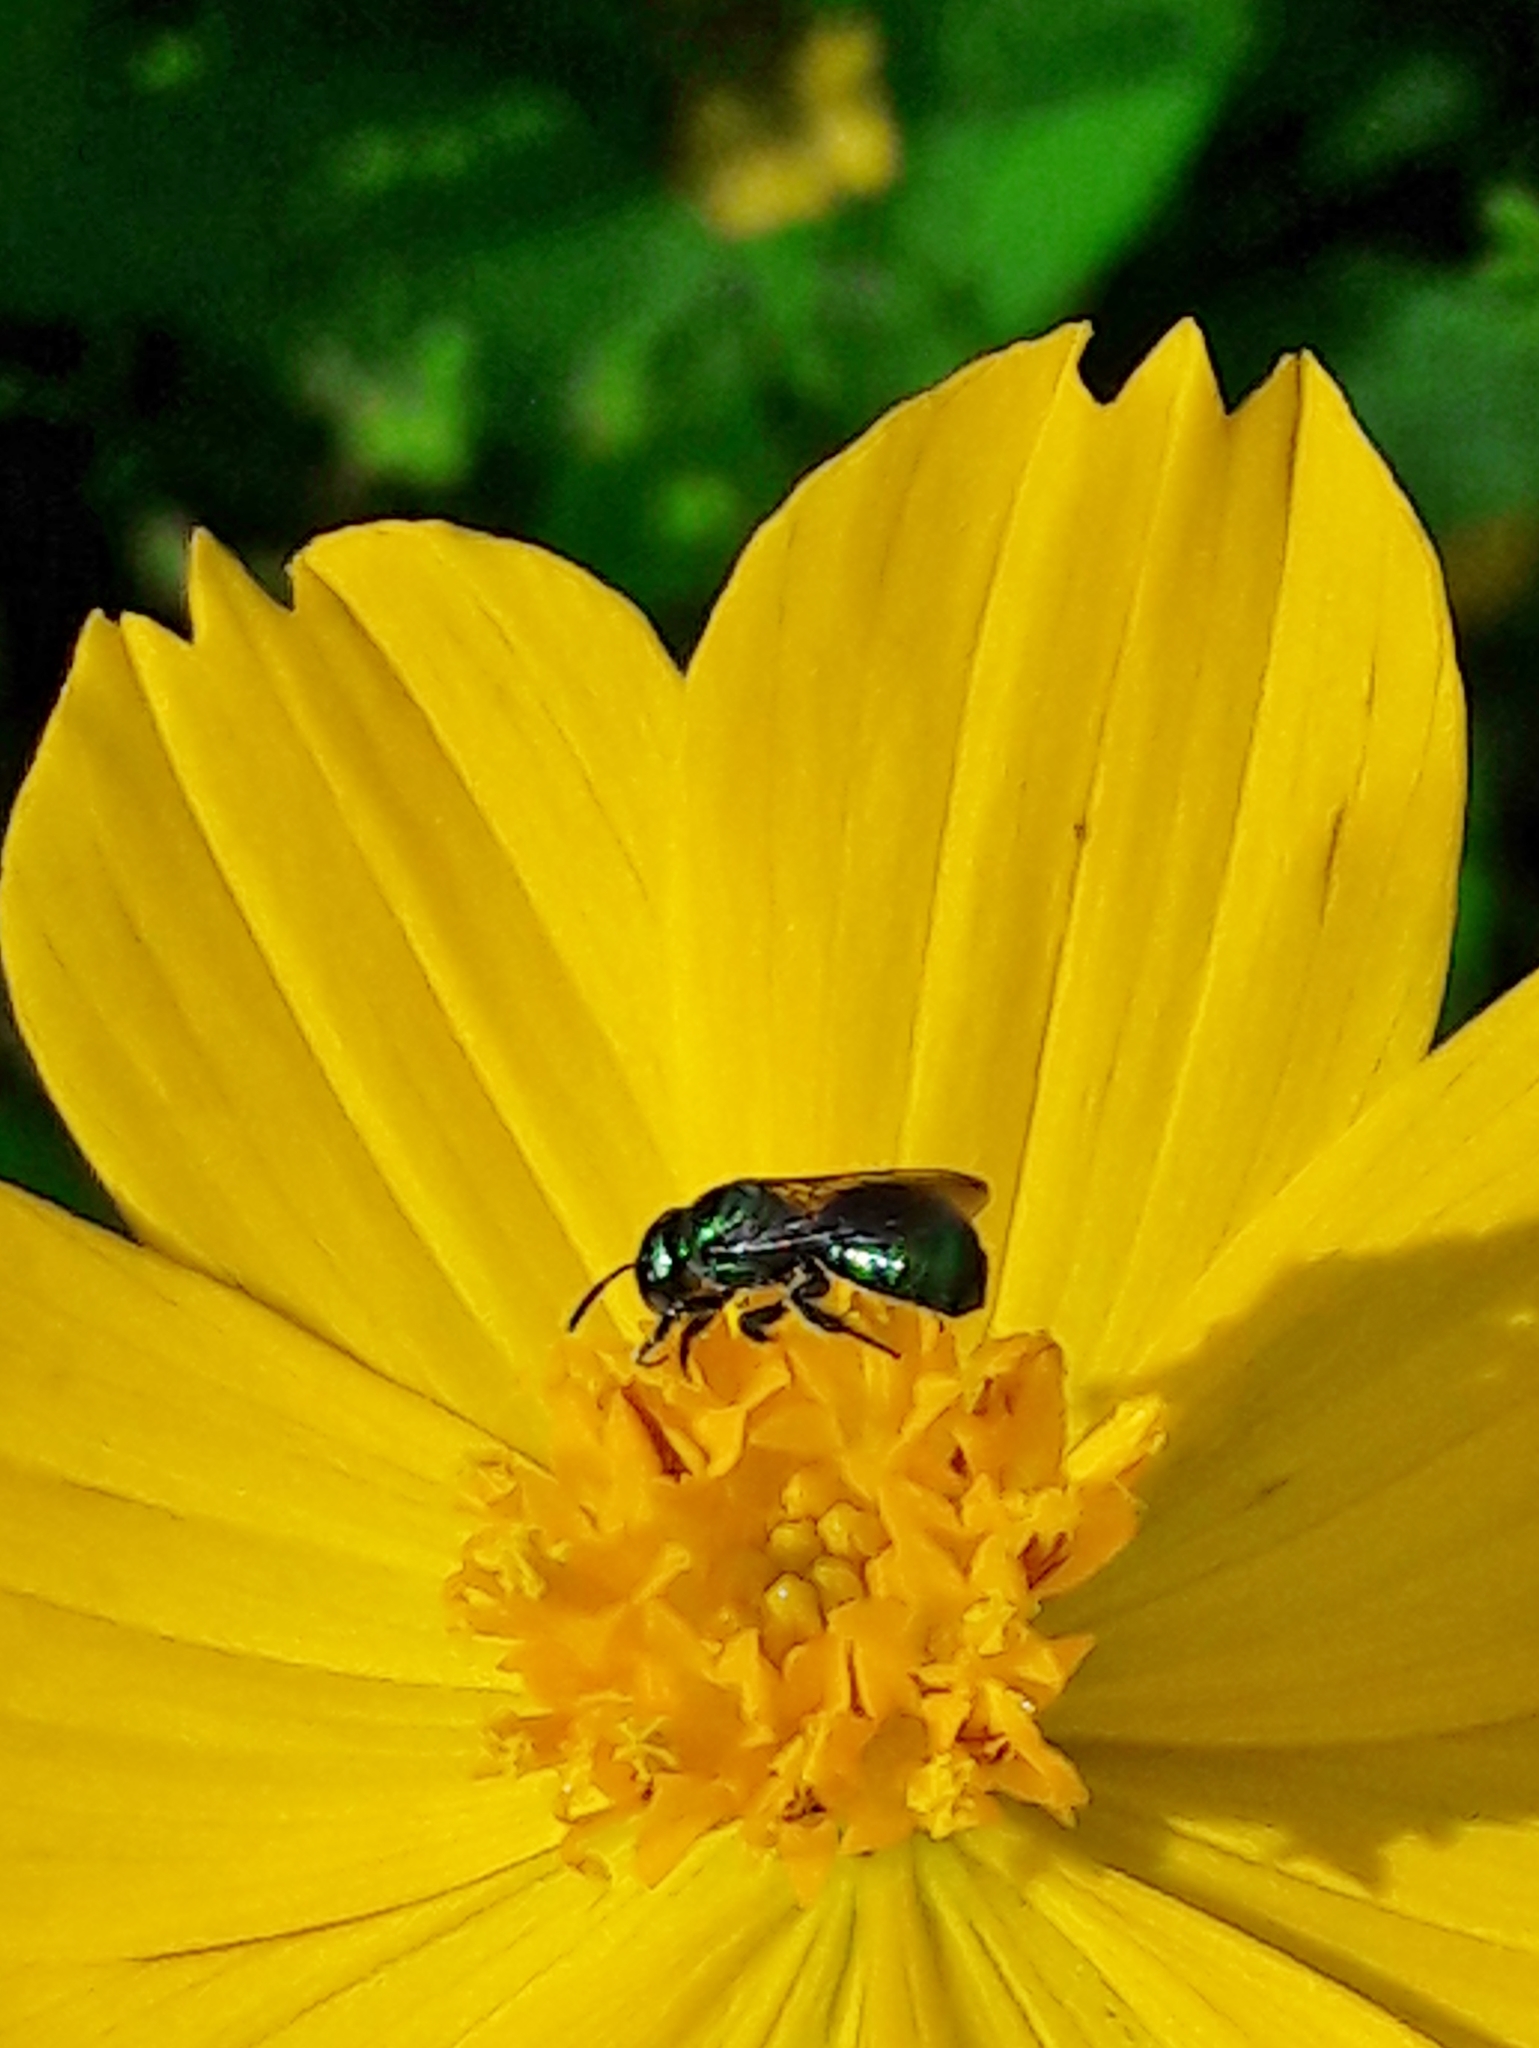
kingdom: Animalia
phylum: Arthropoda
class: Insecta
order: Hymenoptera
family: Apidae
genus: Ceratina
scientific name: Ceratina chloris
